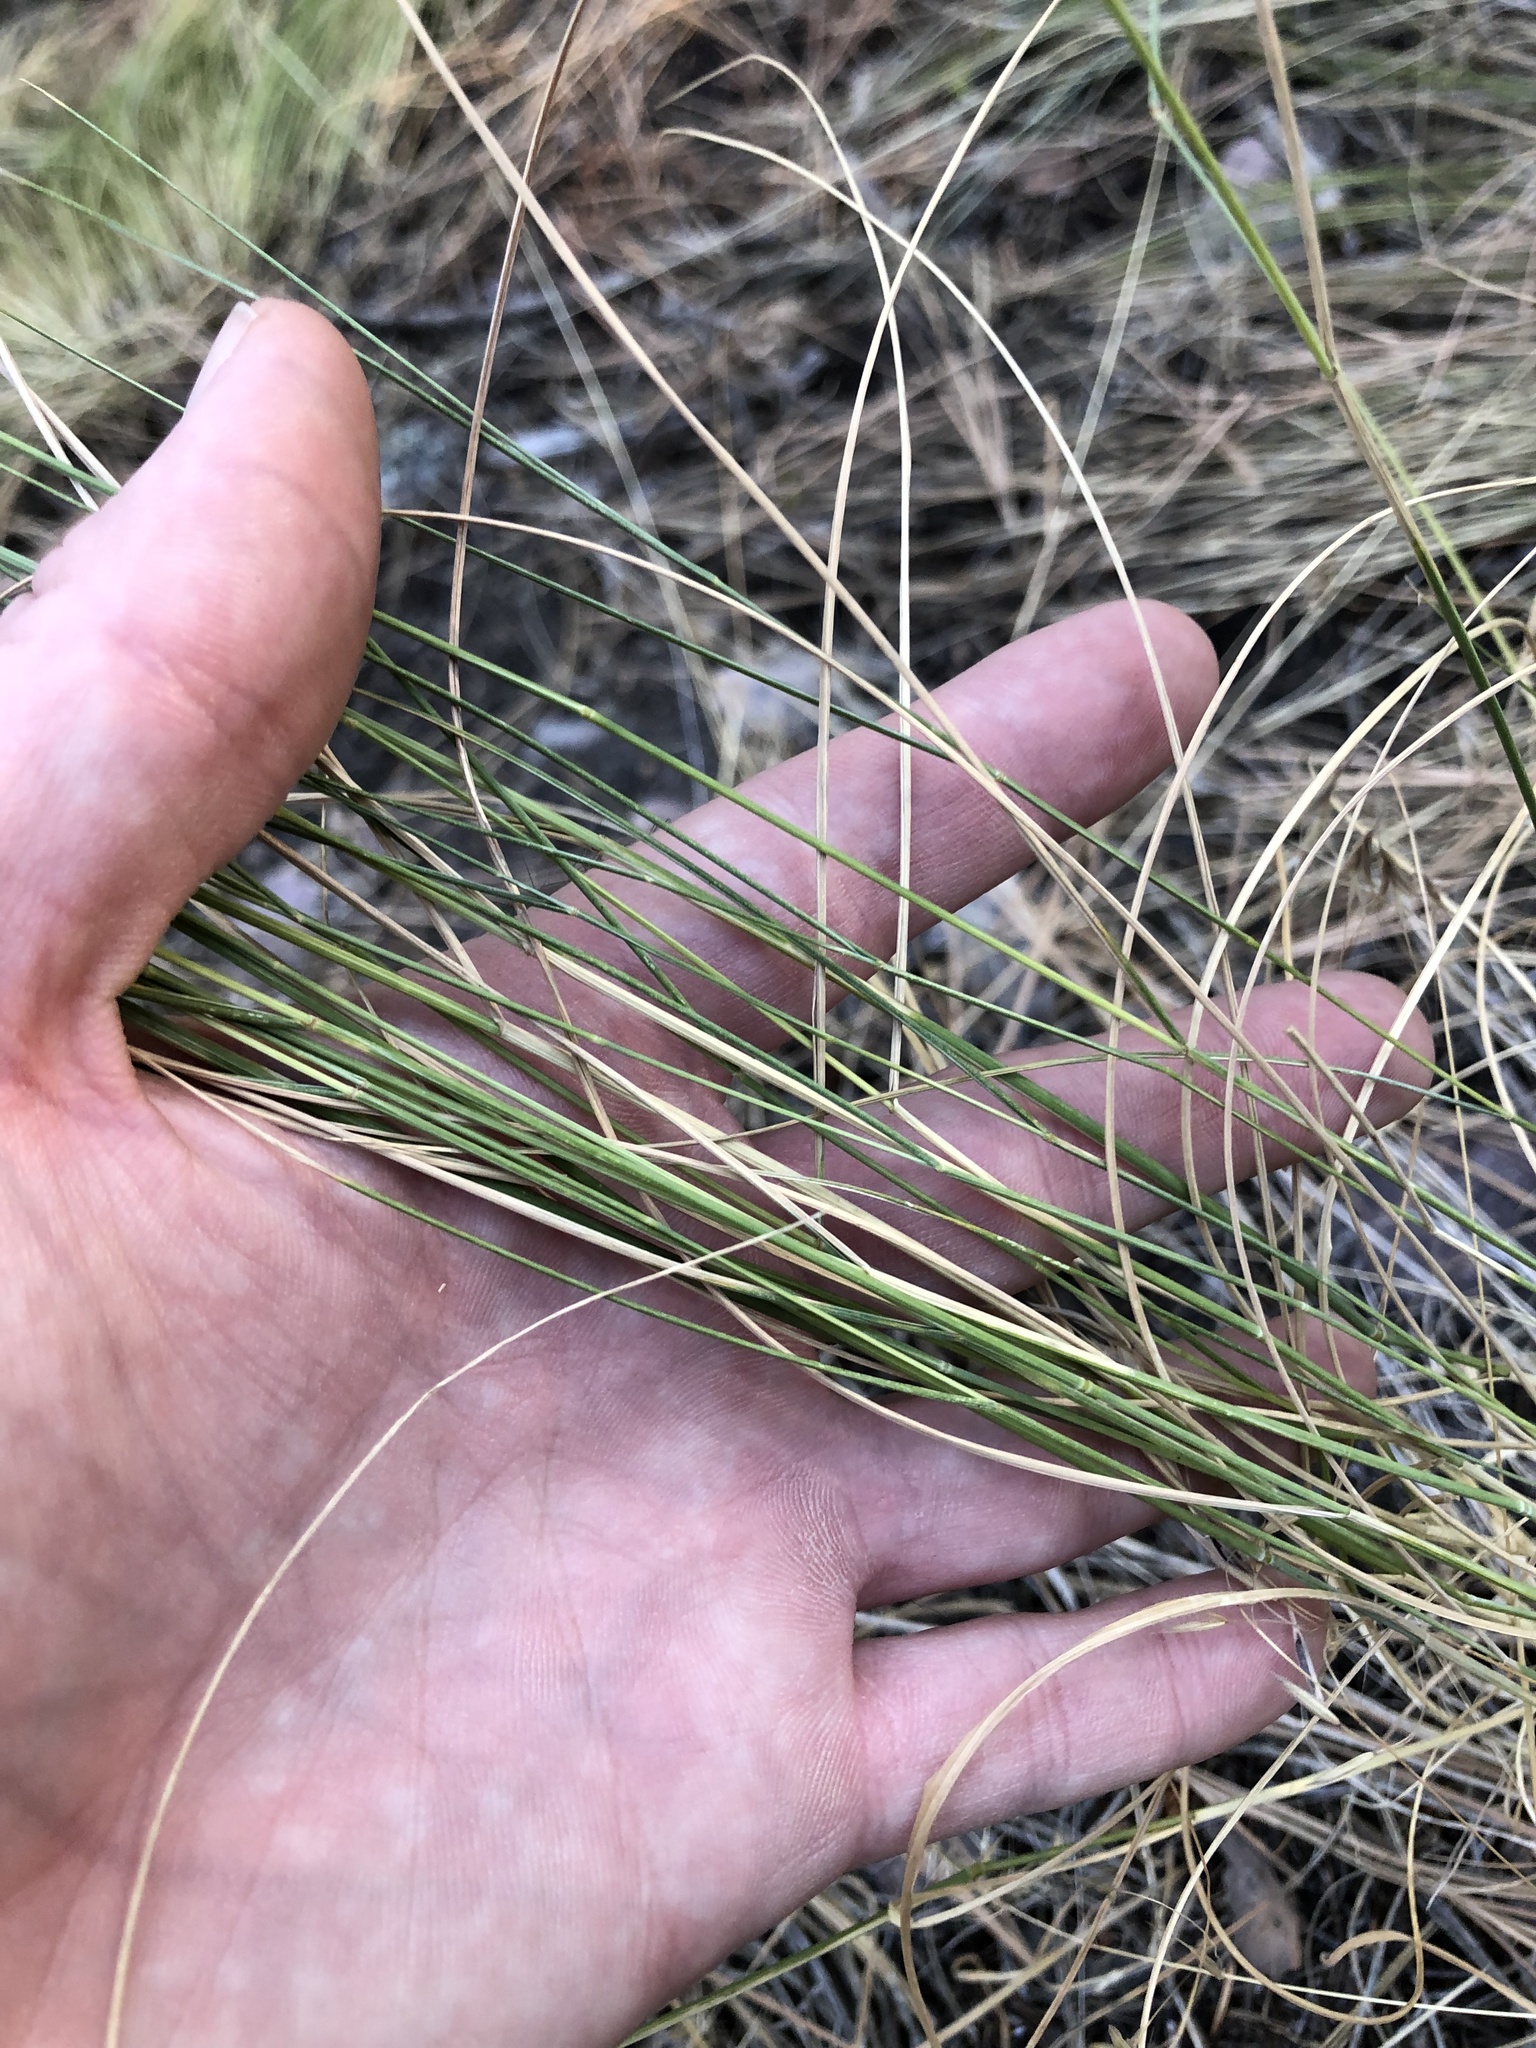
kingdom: Plantae
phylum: Tracheophyta
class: Liliopsida
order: Poales
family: Poaceae
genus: Pseudoroegneria
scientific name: Pseudoroegneria spicata
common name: Bluebunch wheatgrass
